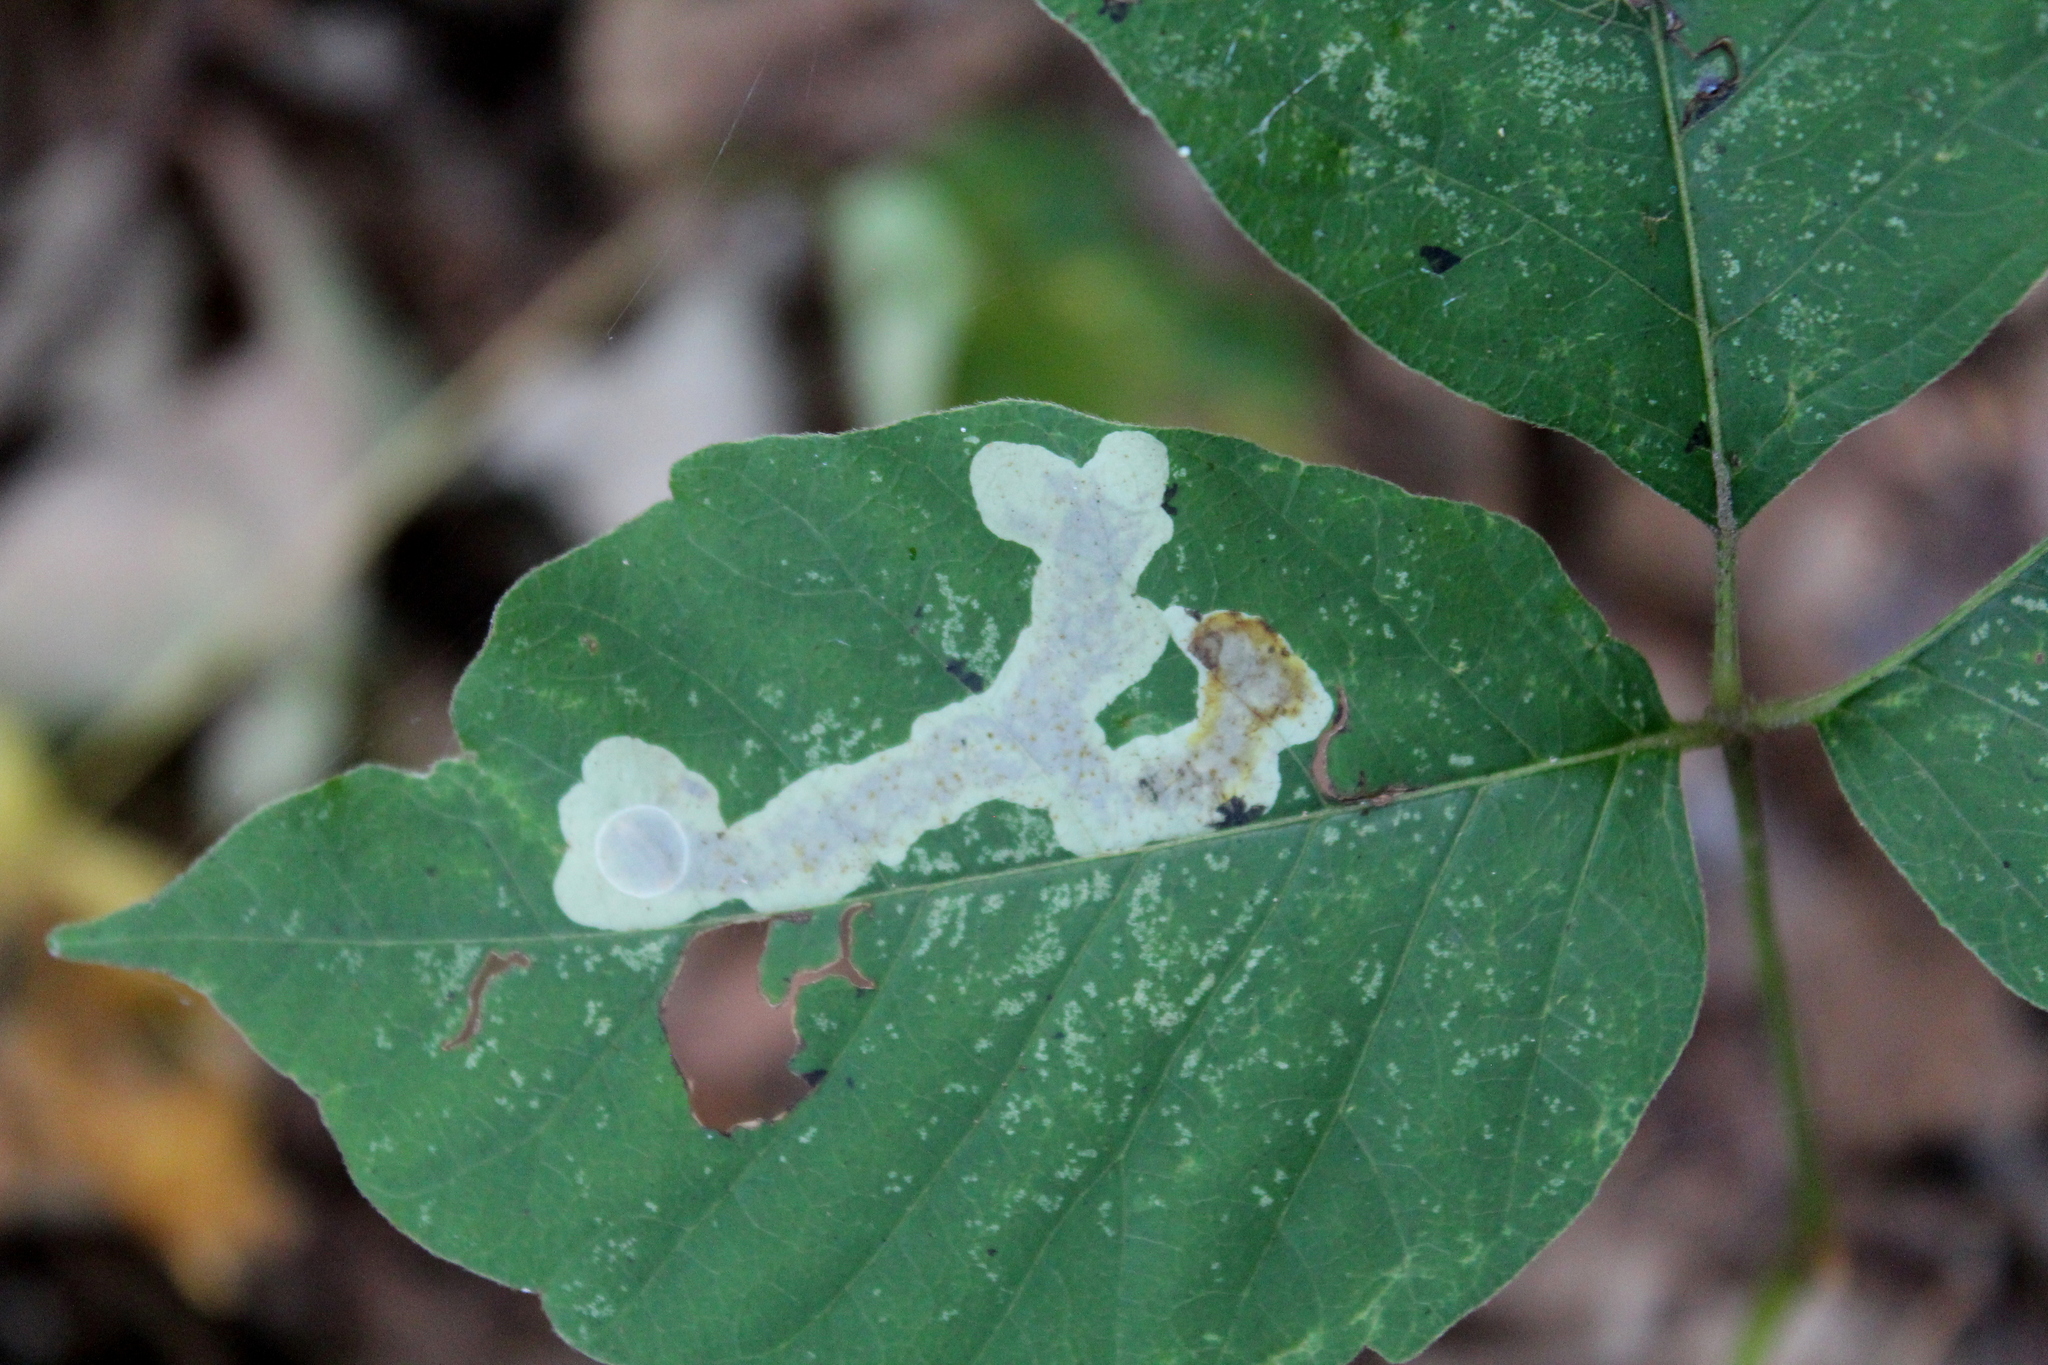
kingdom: Animalia
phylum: Arthropoda
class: Insecta
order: Lepidoptera
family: Gracillariidae
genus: Cameraria
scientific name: Cameraria guttifinitella
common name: Poison ivy leaf-miner moth
